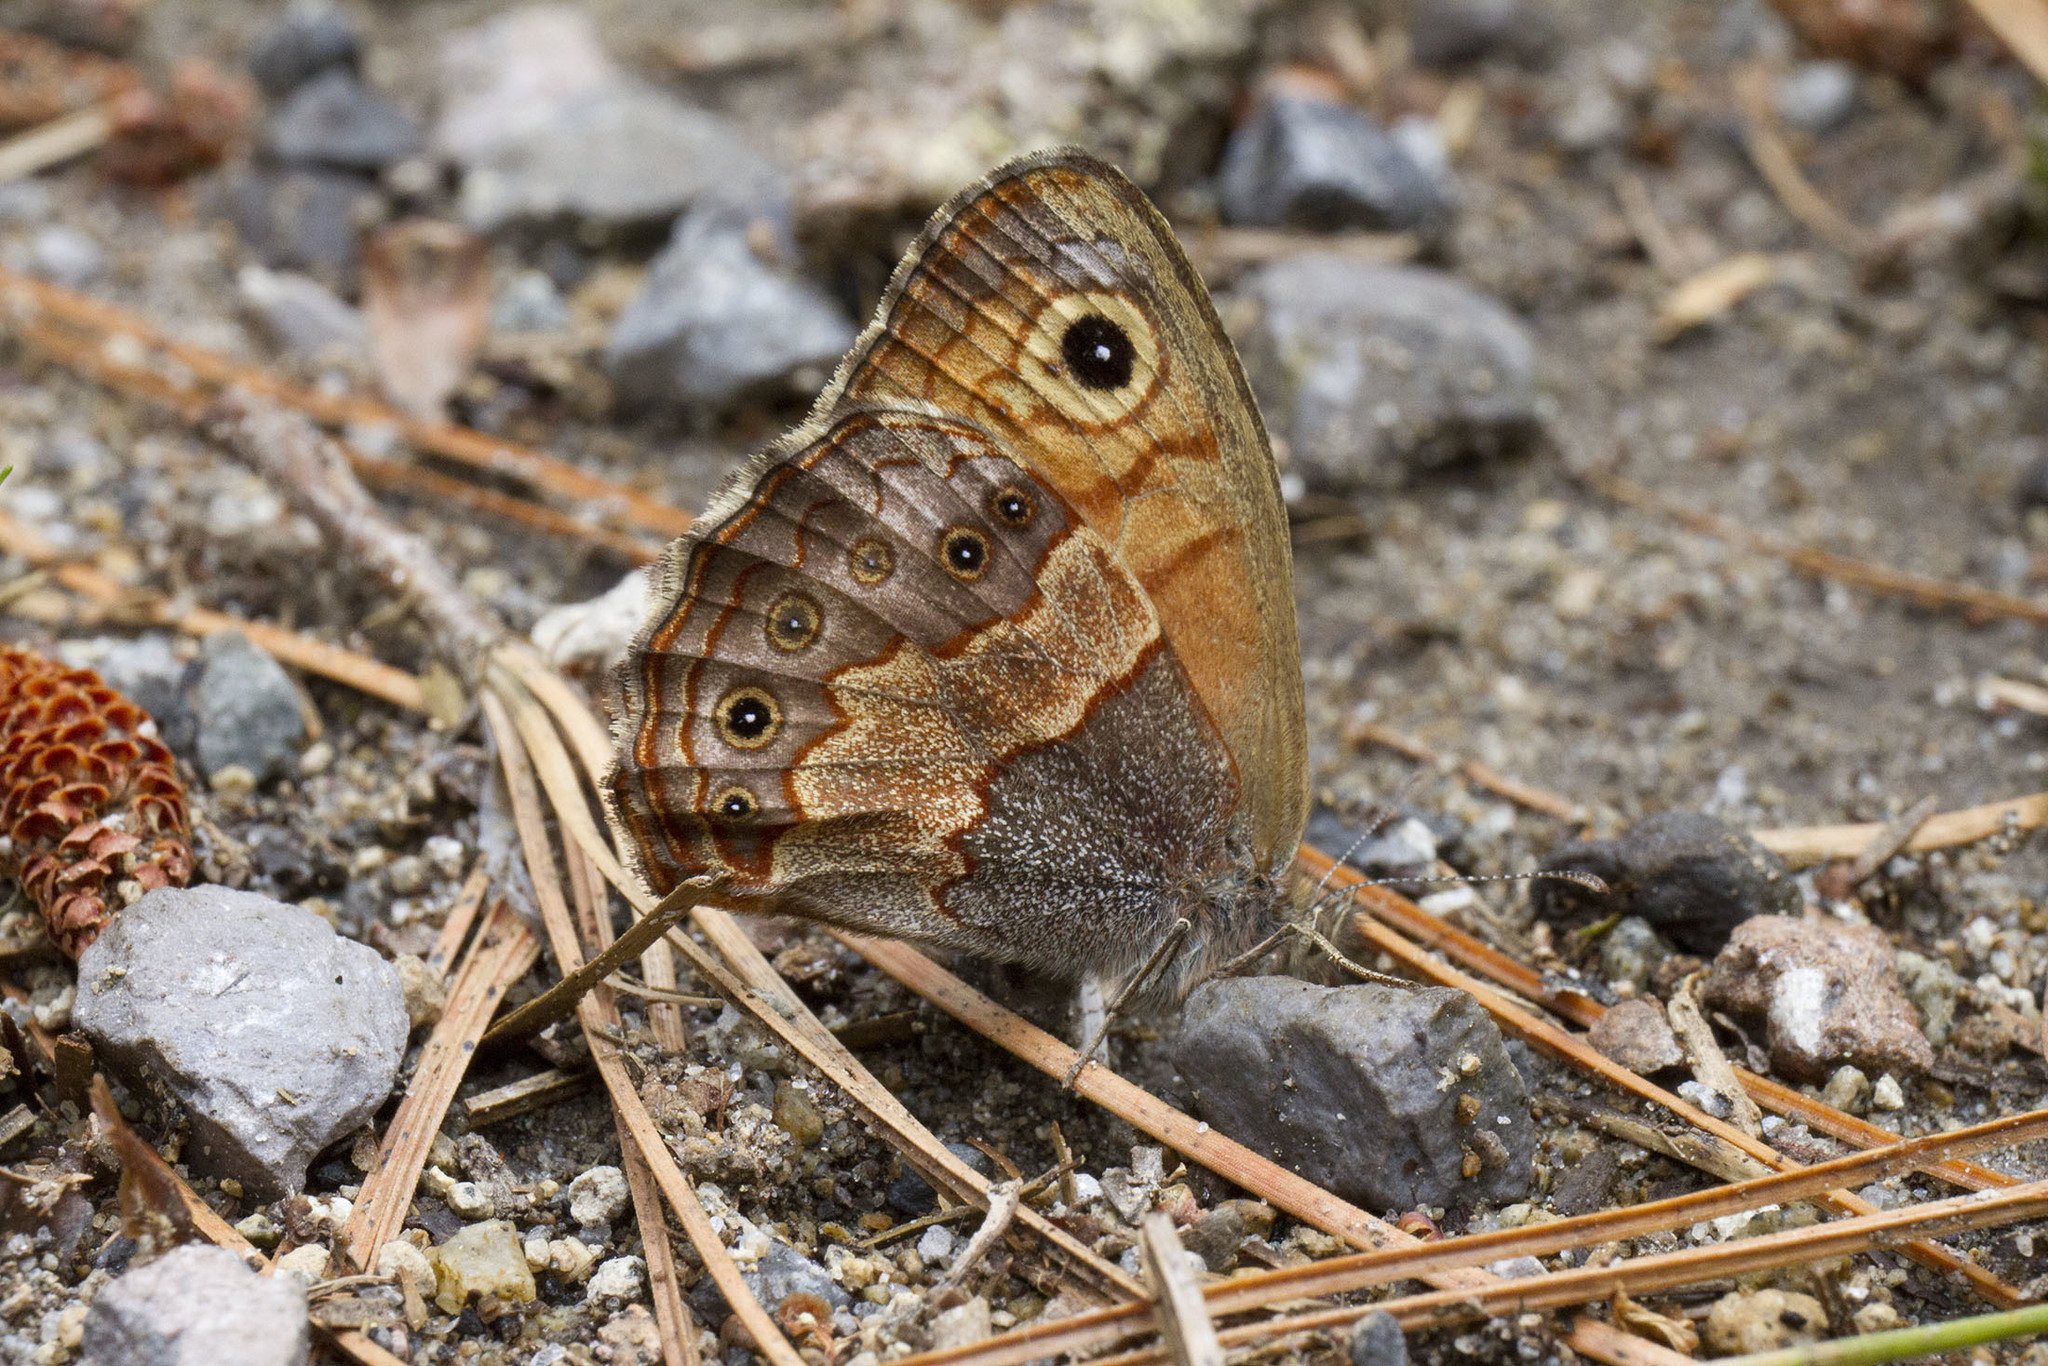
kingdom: Animalia
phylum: Arthropoda
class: Insecta
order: Lepidoptera
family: Nymphalidae
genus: Paramecera
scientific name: Paramecera xicaque
